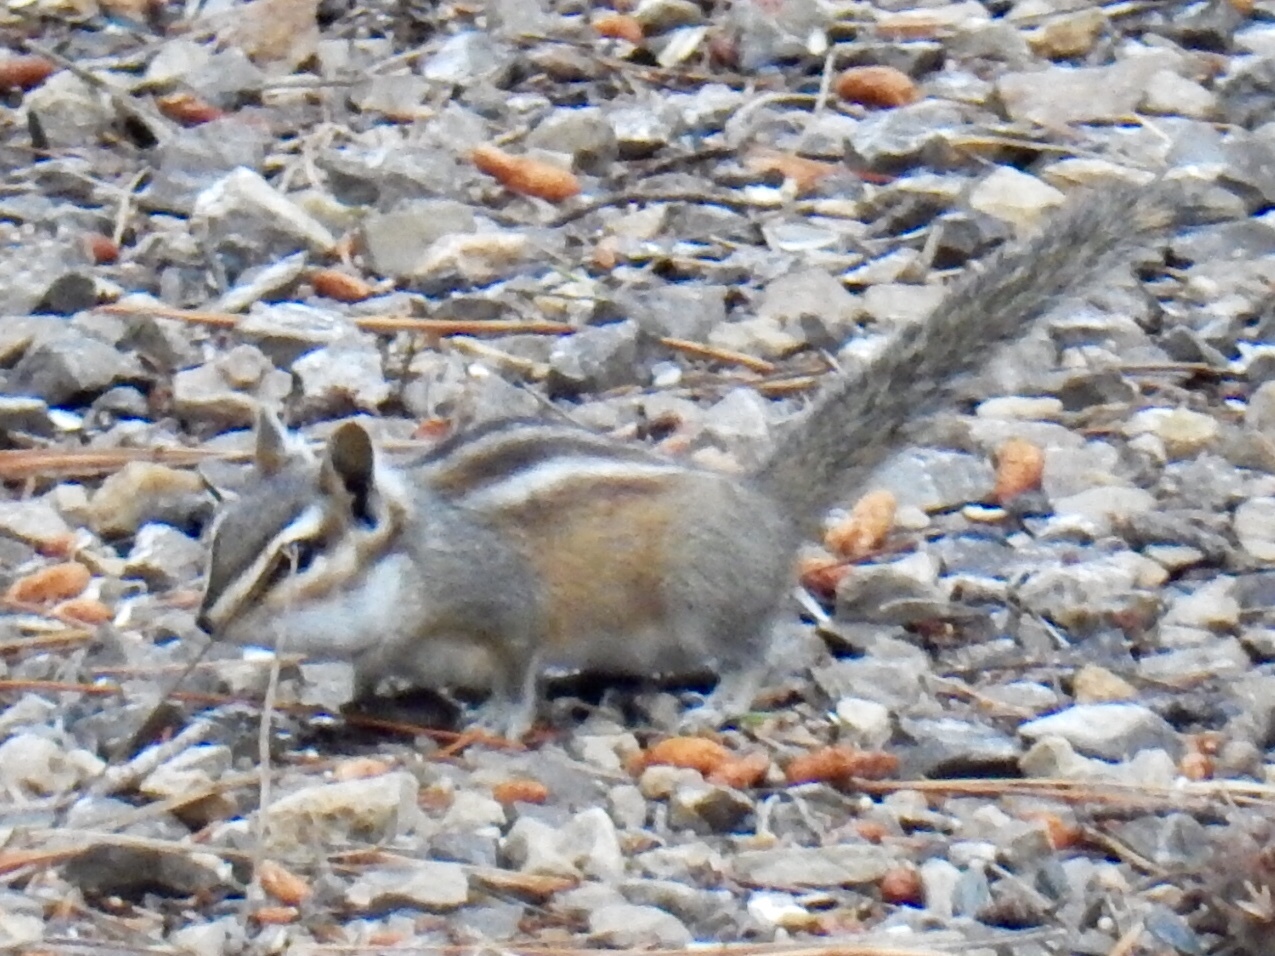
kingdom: Animalia
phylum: Chordata
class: Mammalia
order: Rodentia
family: Sciuridae
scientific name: Sciuridae
